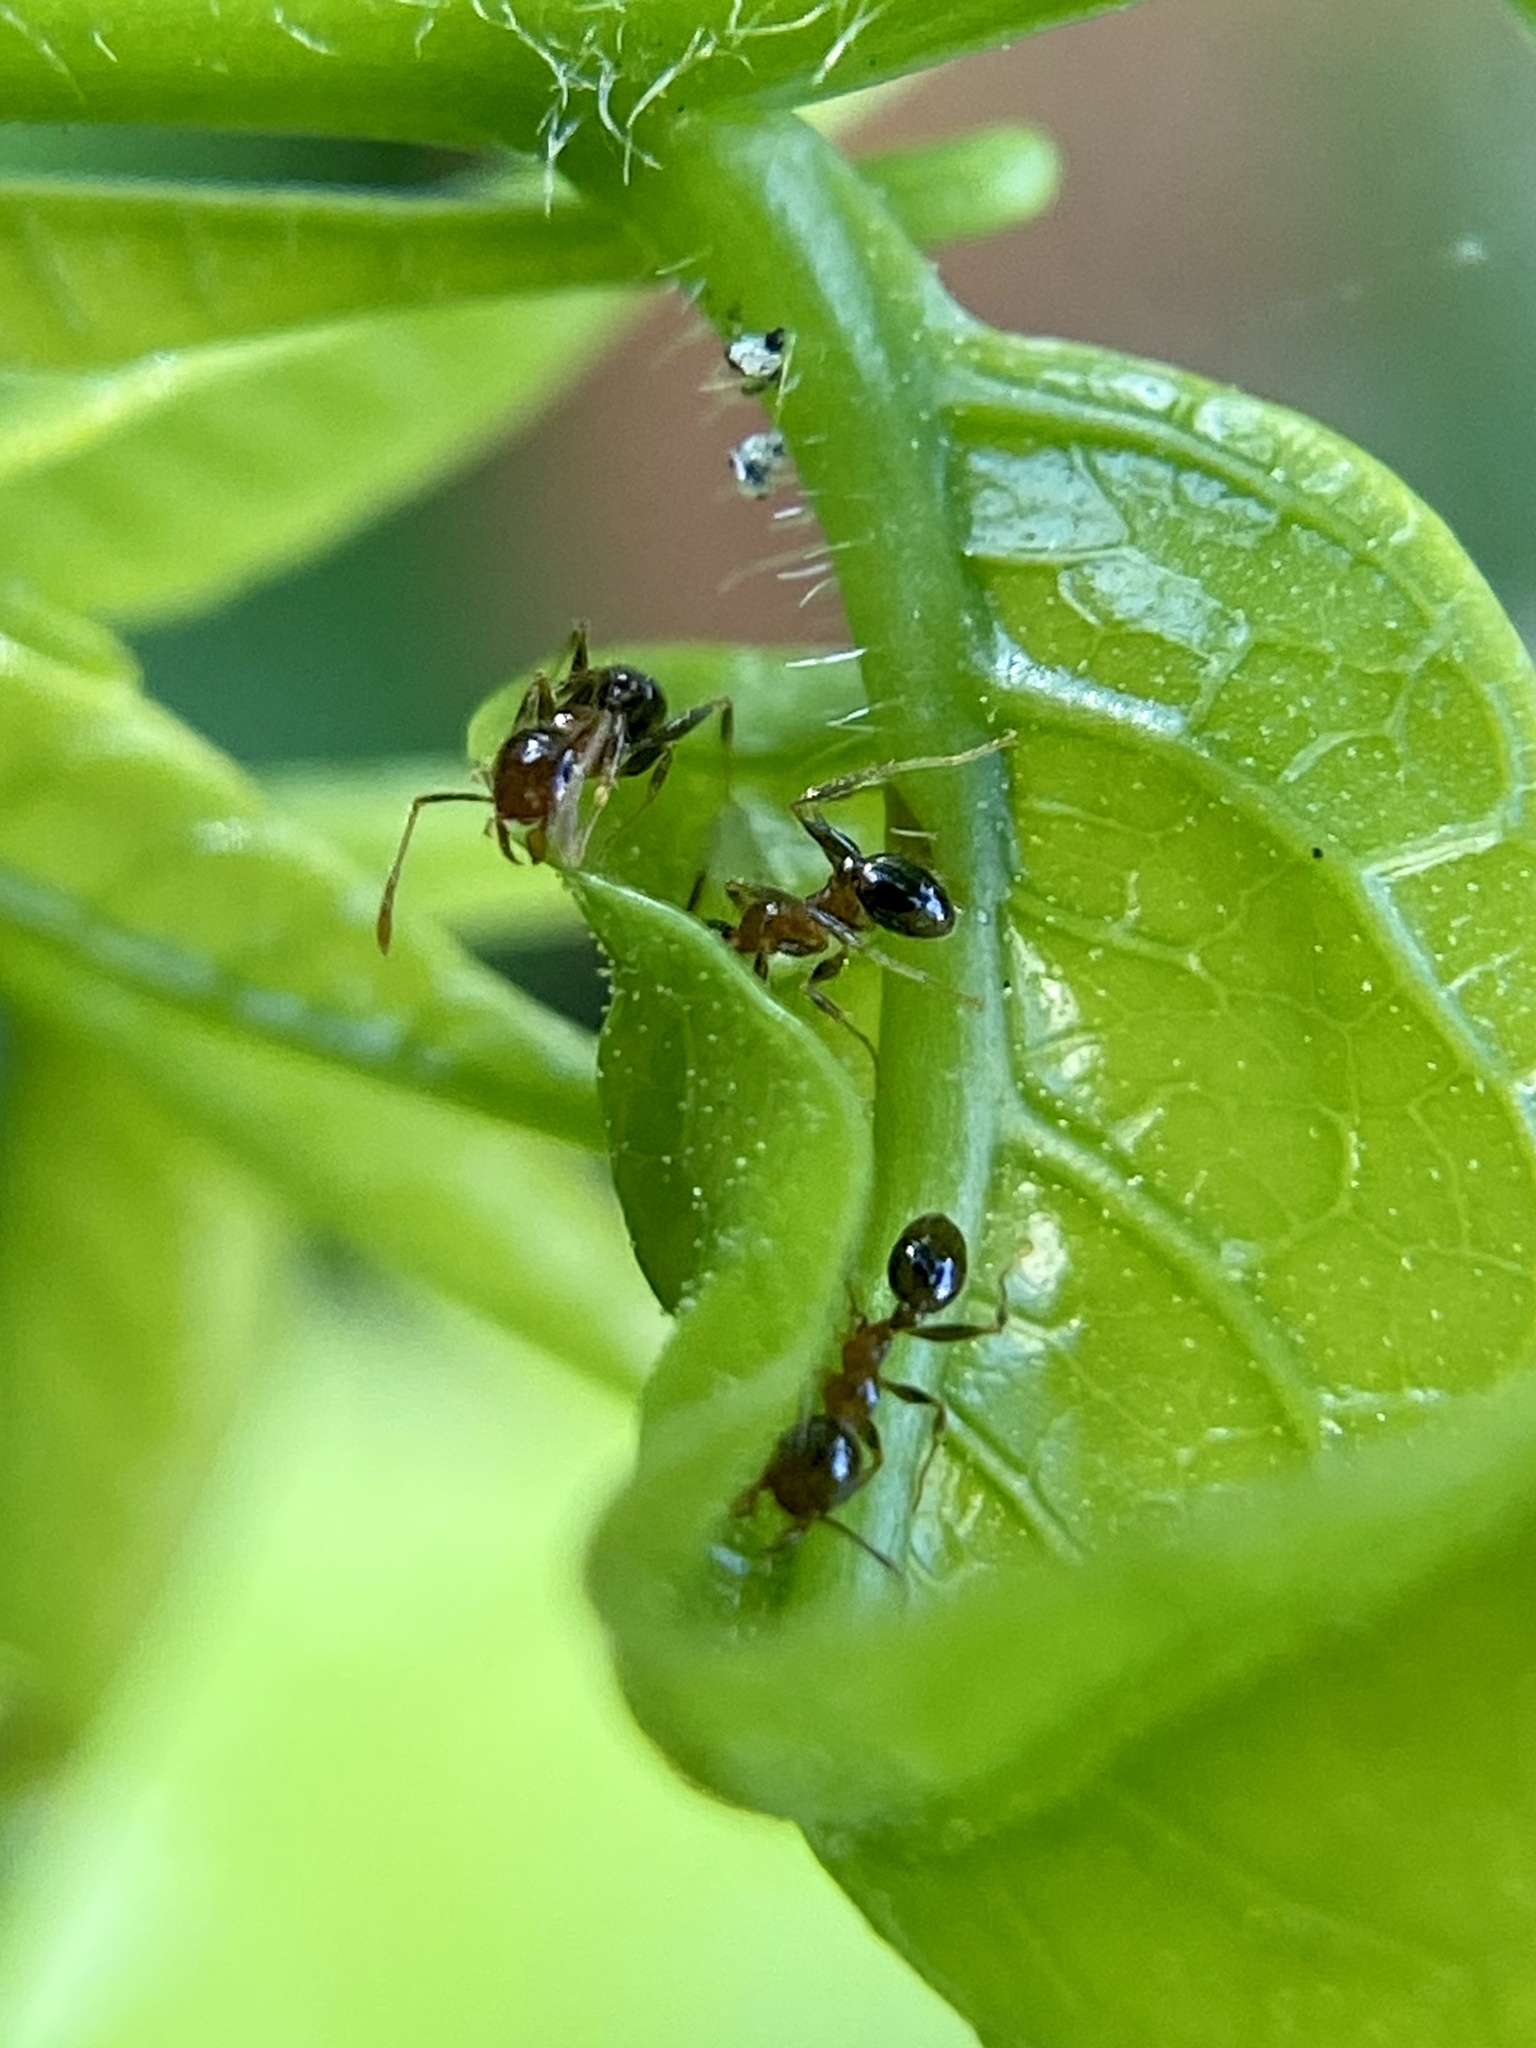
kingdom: Animalia
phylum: Arthropoda
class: Insecta
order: Hymenoptera
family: Formicidae
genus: Pheidole
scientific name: Pheidole megacephala
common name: Bigheaded ant
